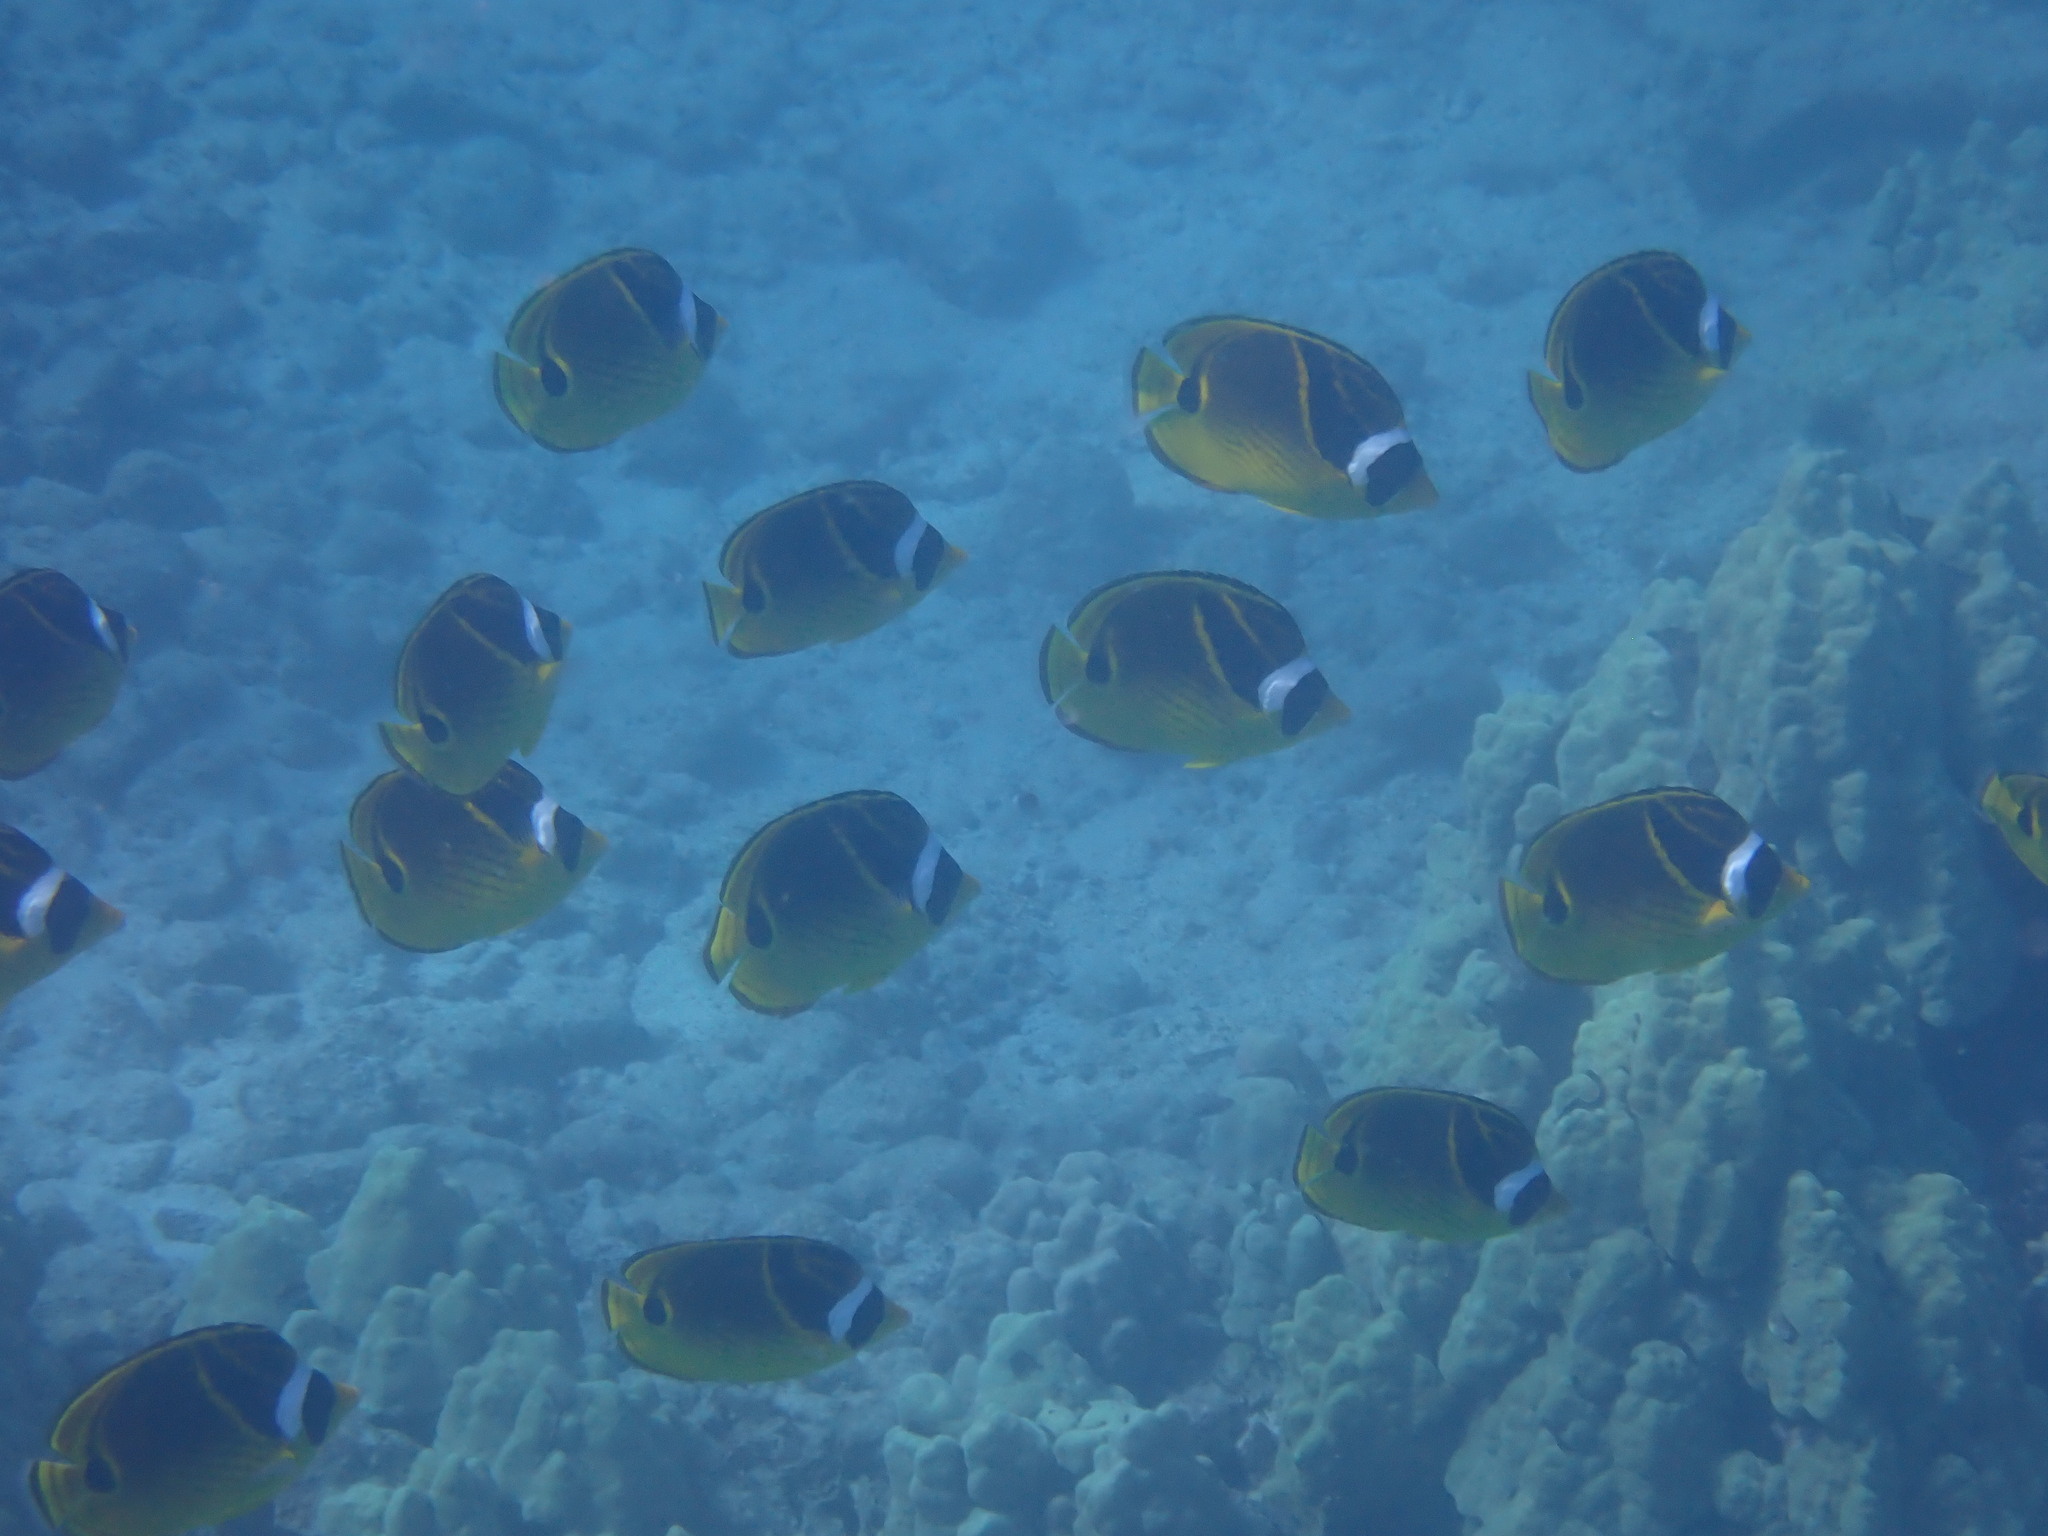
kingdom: Animalia
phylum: Chordata
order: Perciformes
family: Chaetodontidae
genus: Chaetodon
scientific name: Chaetodon lunula
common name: Raccoon butterflyfish
